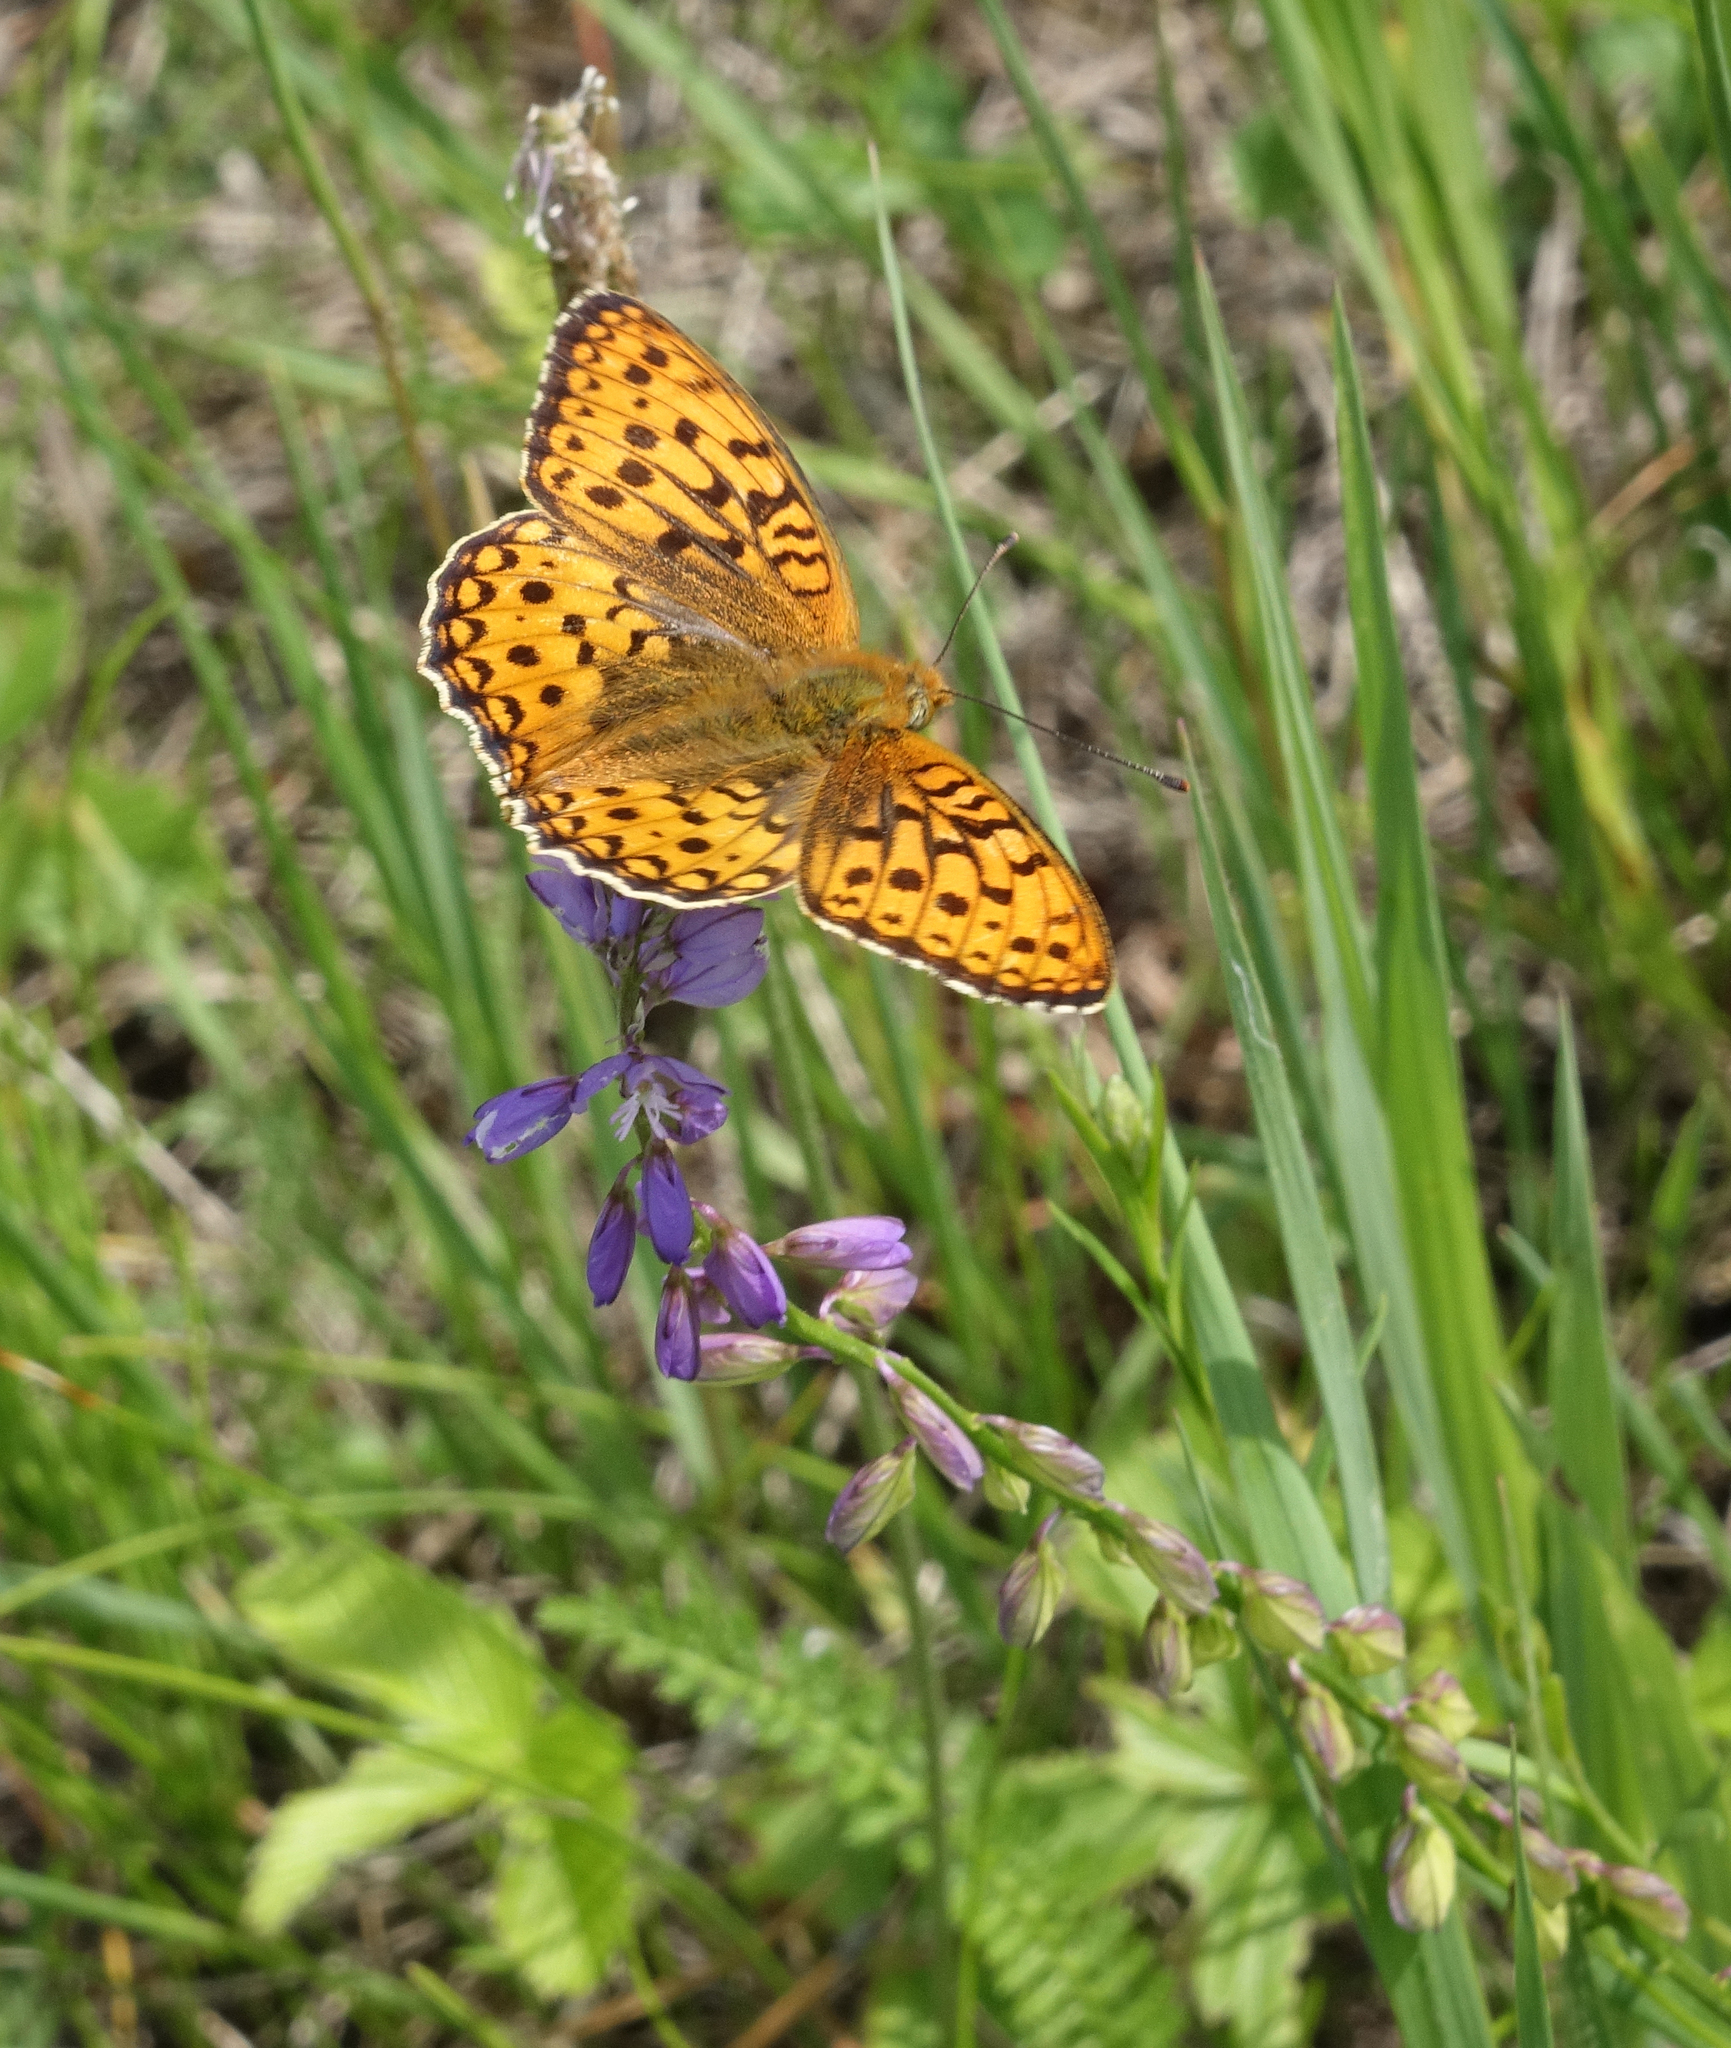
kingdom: Animalia
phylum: Arthropoda
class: Insecta
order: Lepidoptera
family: Nymphalidae
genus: Fabriciana
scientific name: Fabriciana adippe
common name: High brown fritillary
